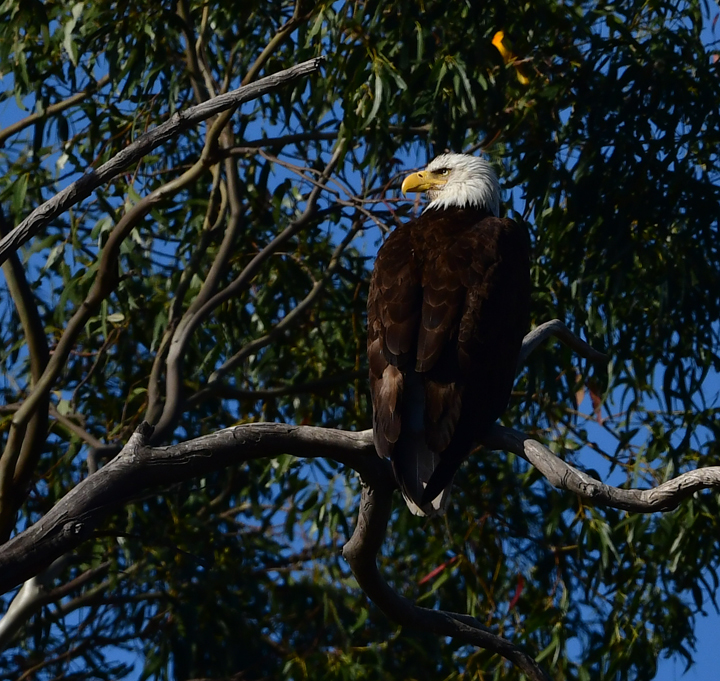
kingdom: Animalia
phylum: Chordata
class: Aves
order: Accipitriformes
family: Accipitridae
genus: Haliaeetus
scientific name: Haliaeetus leucocephalus
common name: Bald eagle
